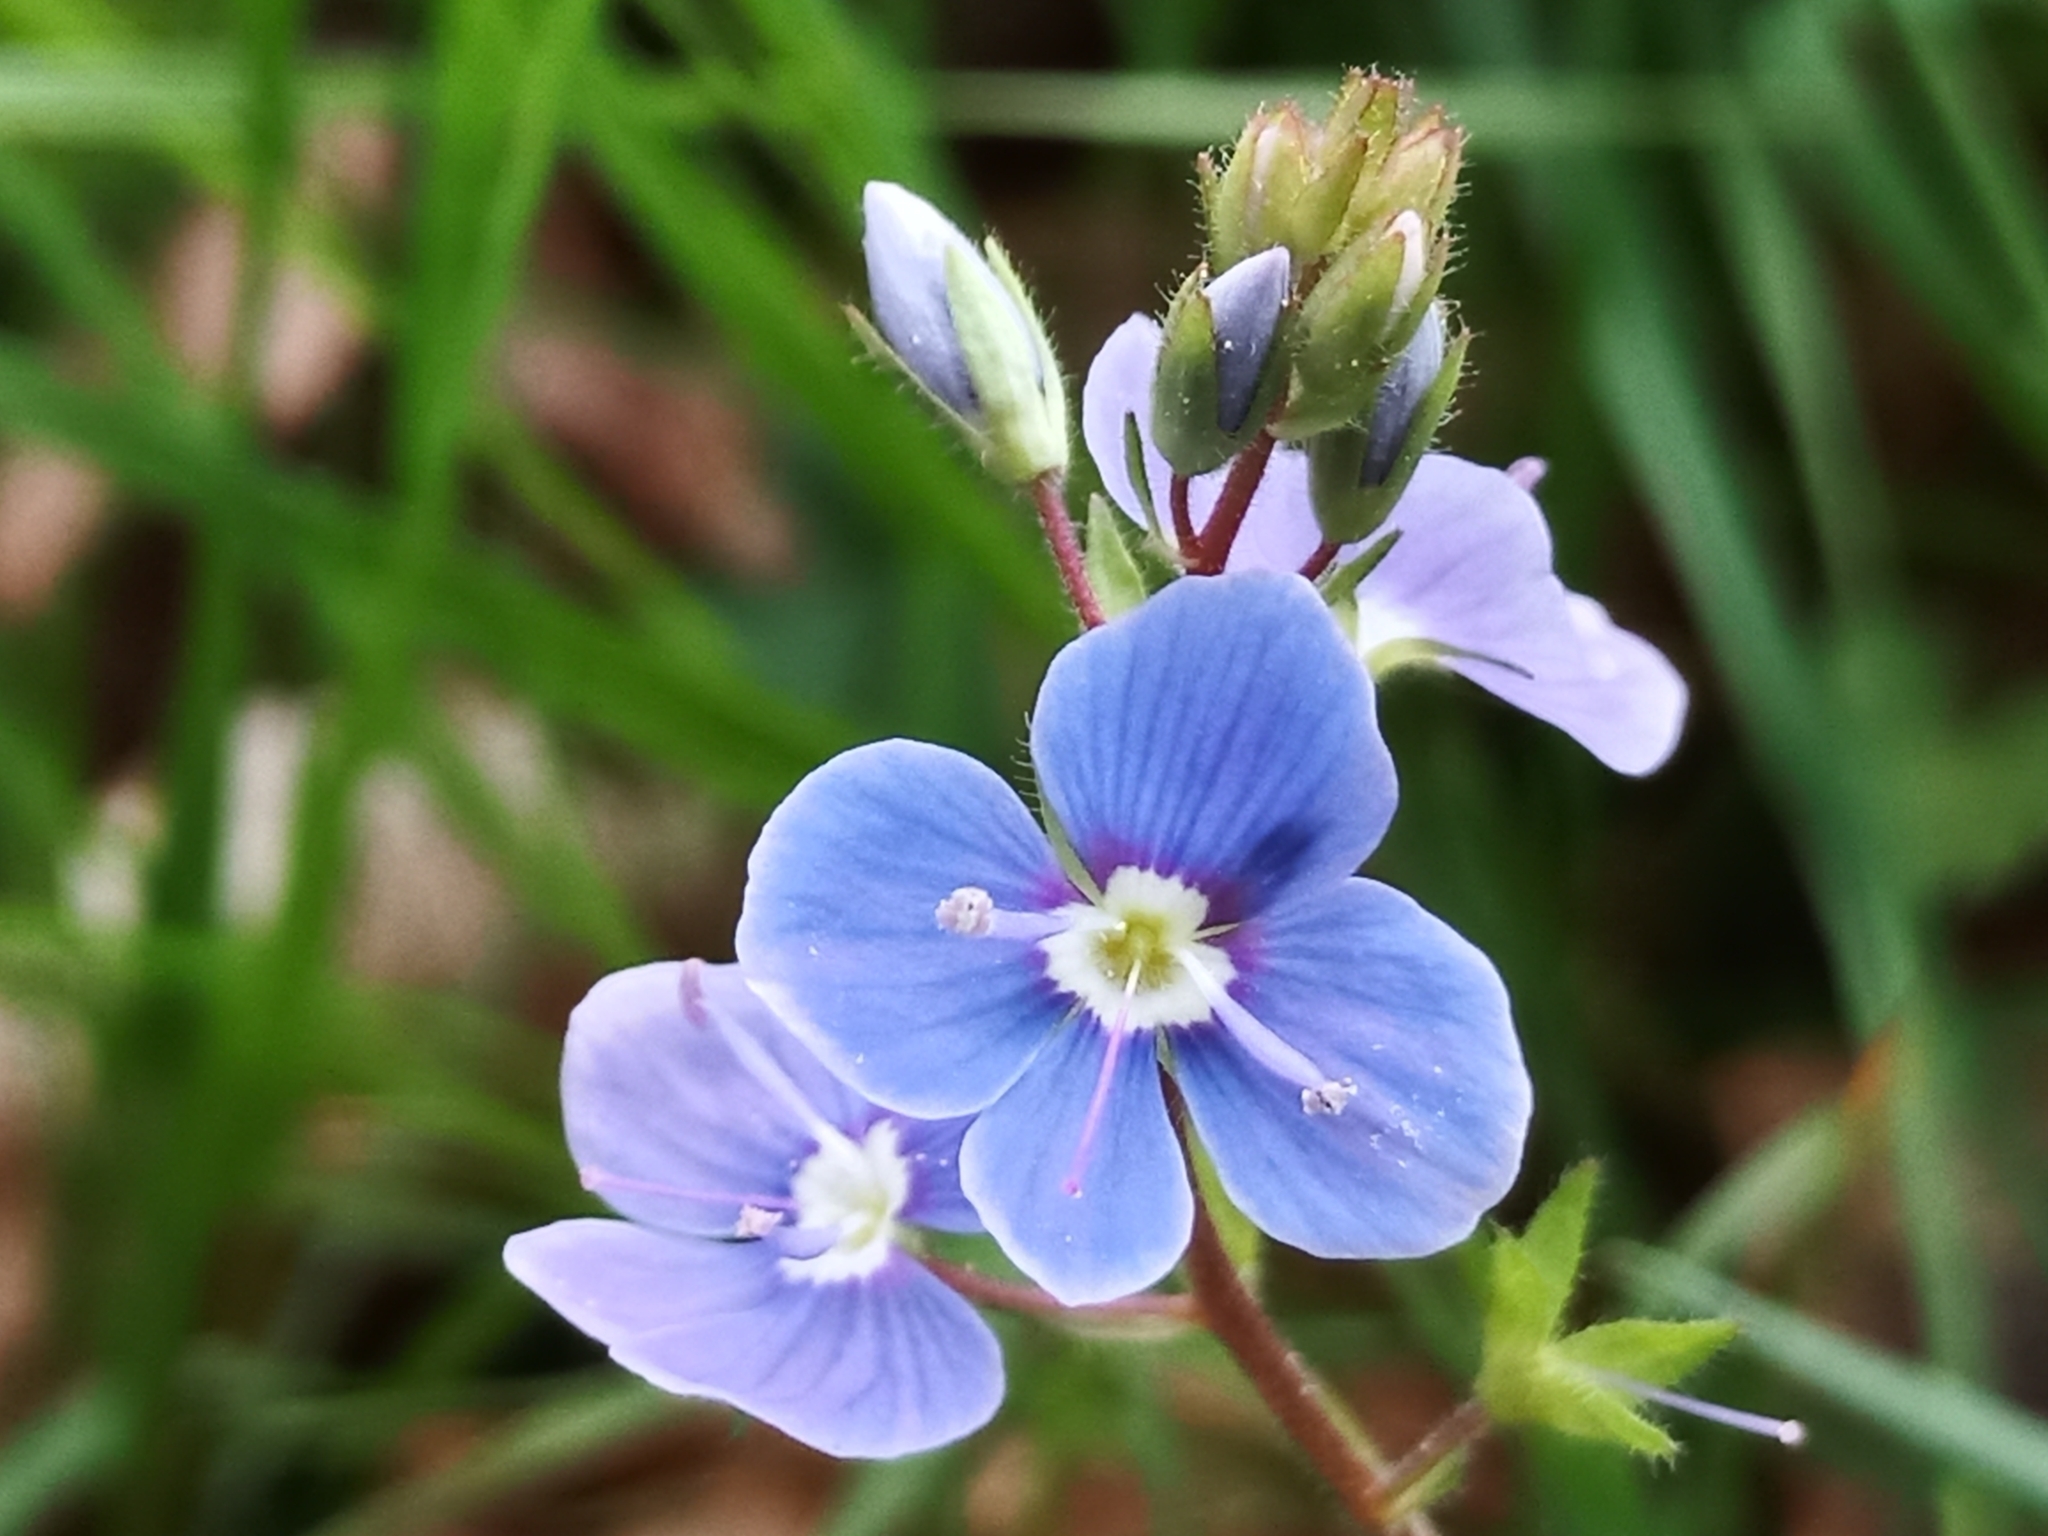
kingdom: Plantae
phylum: Tracheophyta
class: Magnoliopsida
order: Lamiales
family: Plantaginaceae
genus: Veronica
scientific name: Veronica chamaedrys
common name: Germander speedwell
